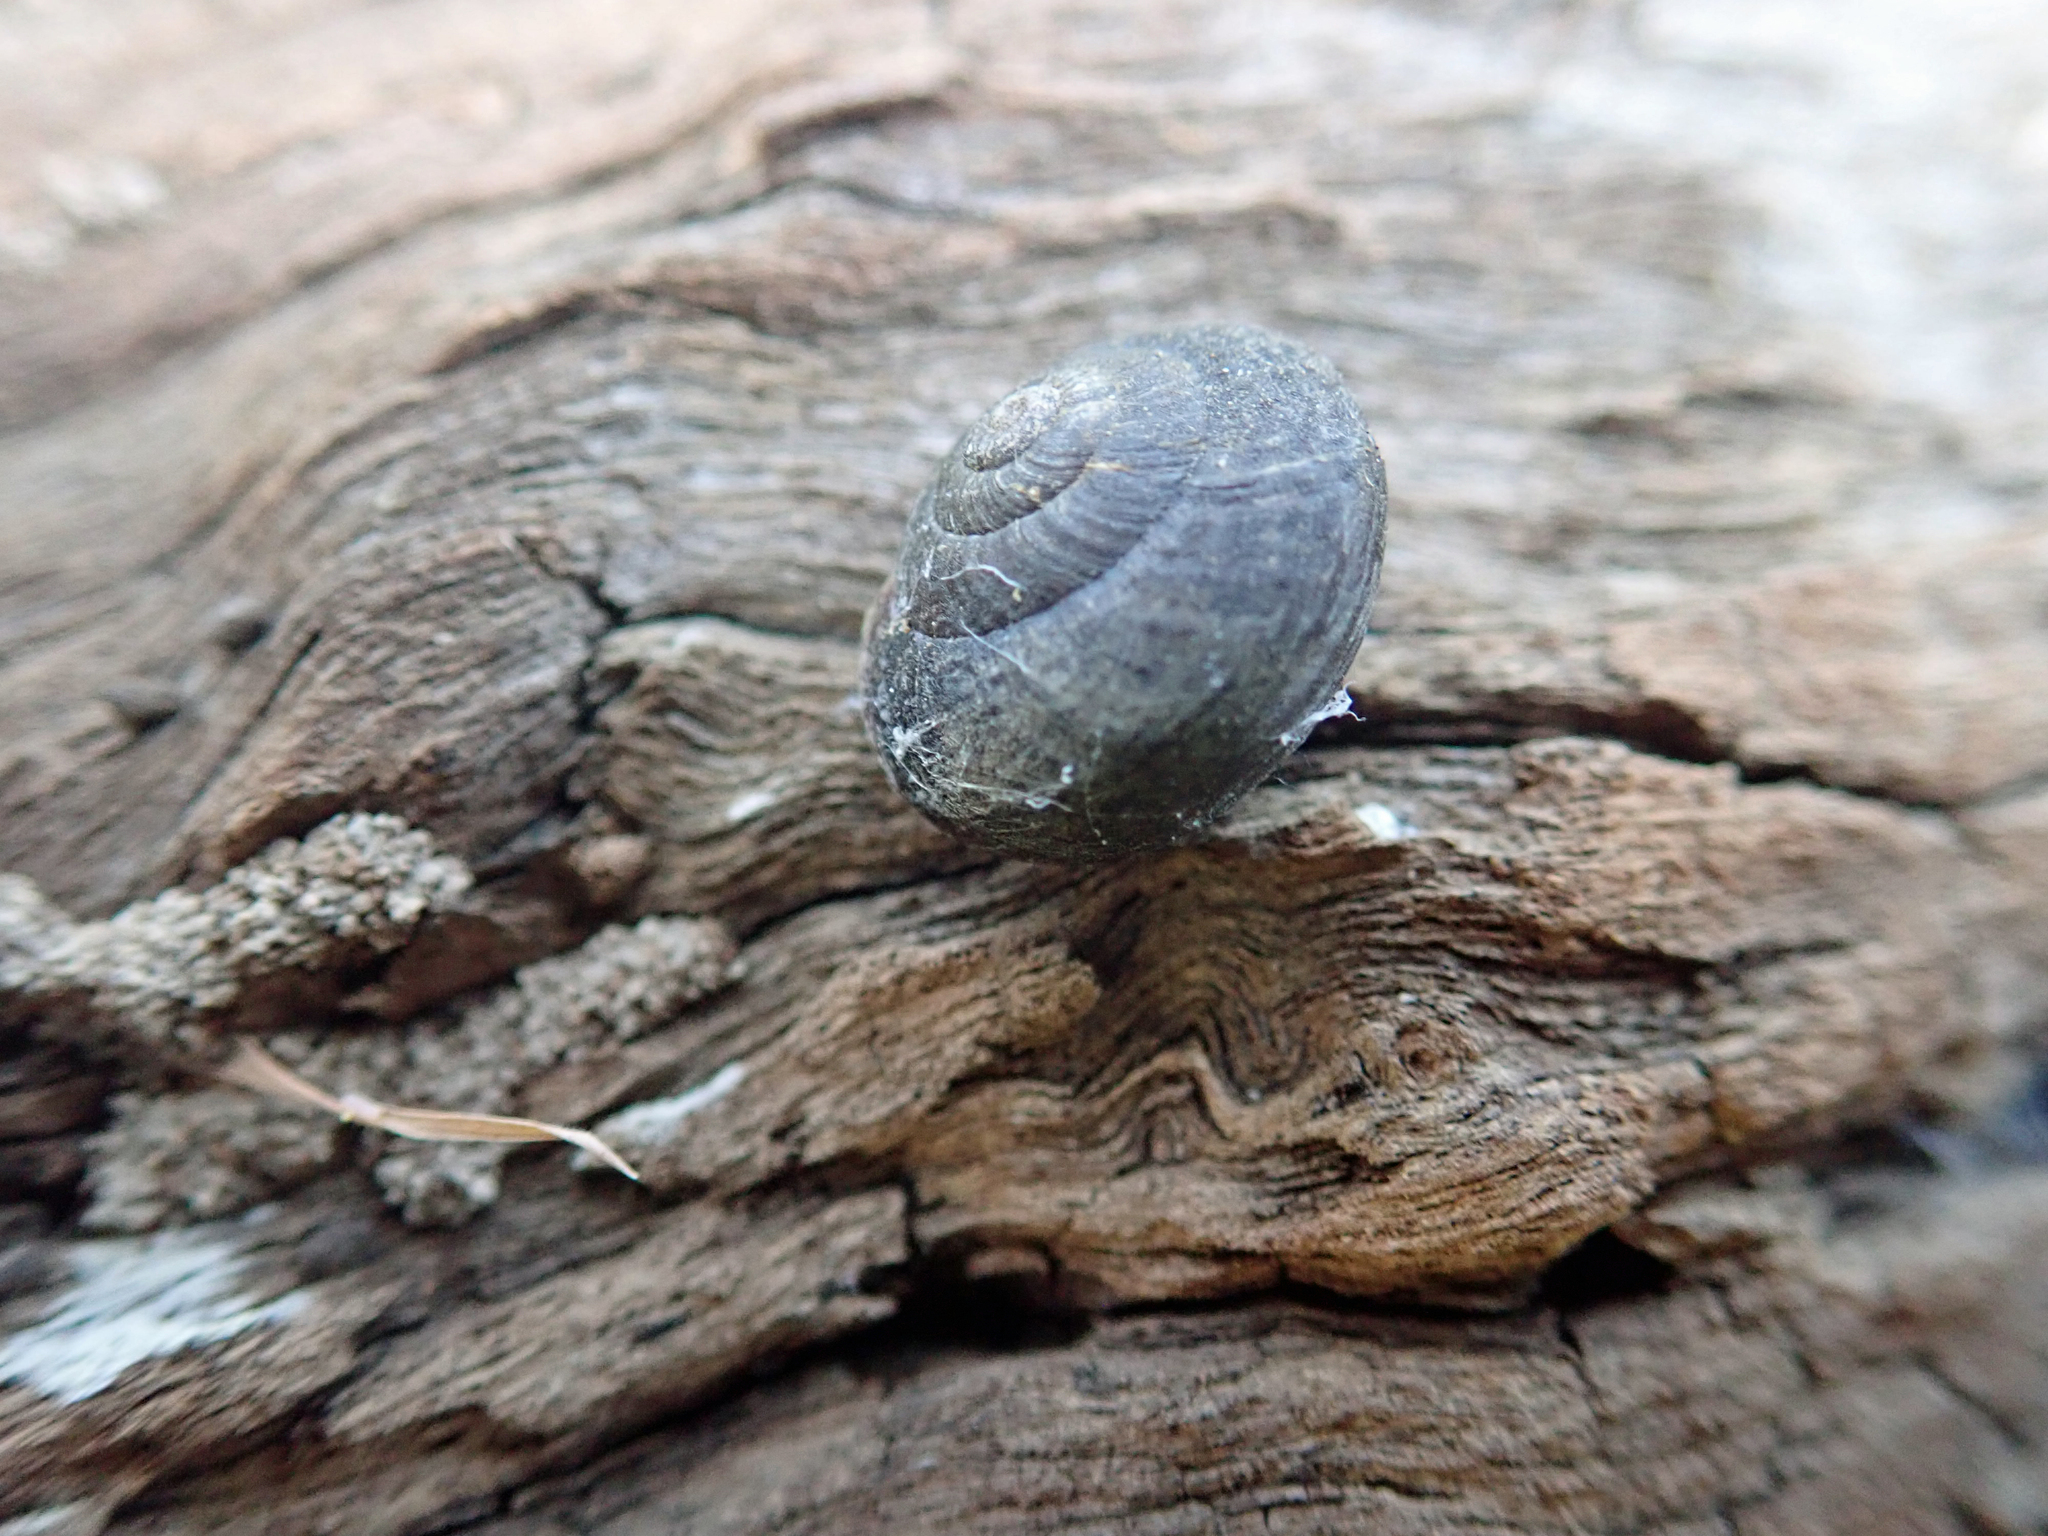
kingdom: Animalia
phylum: Mollusca
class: Gastropoda
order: Stylommatophora
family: Camaenidae
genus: Pommerhelix
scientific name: Pommerhelix
